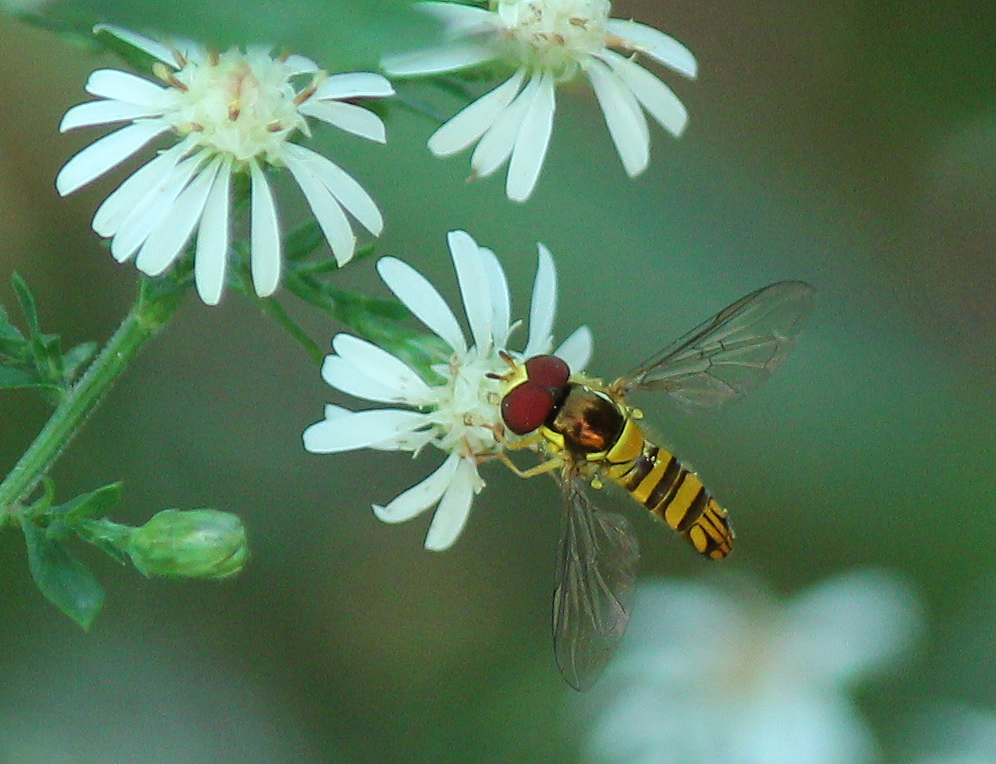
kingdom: Animalia
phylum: Arthropoda
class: Insecta
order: Diptera
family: Syrphidae
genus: Allograpta
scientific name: Allograpta obliqua
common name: Common oblique syrphid
